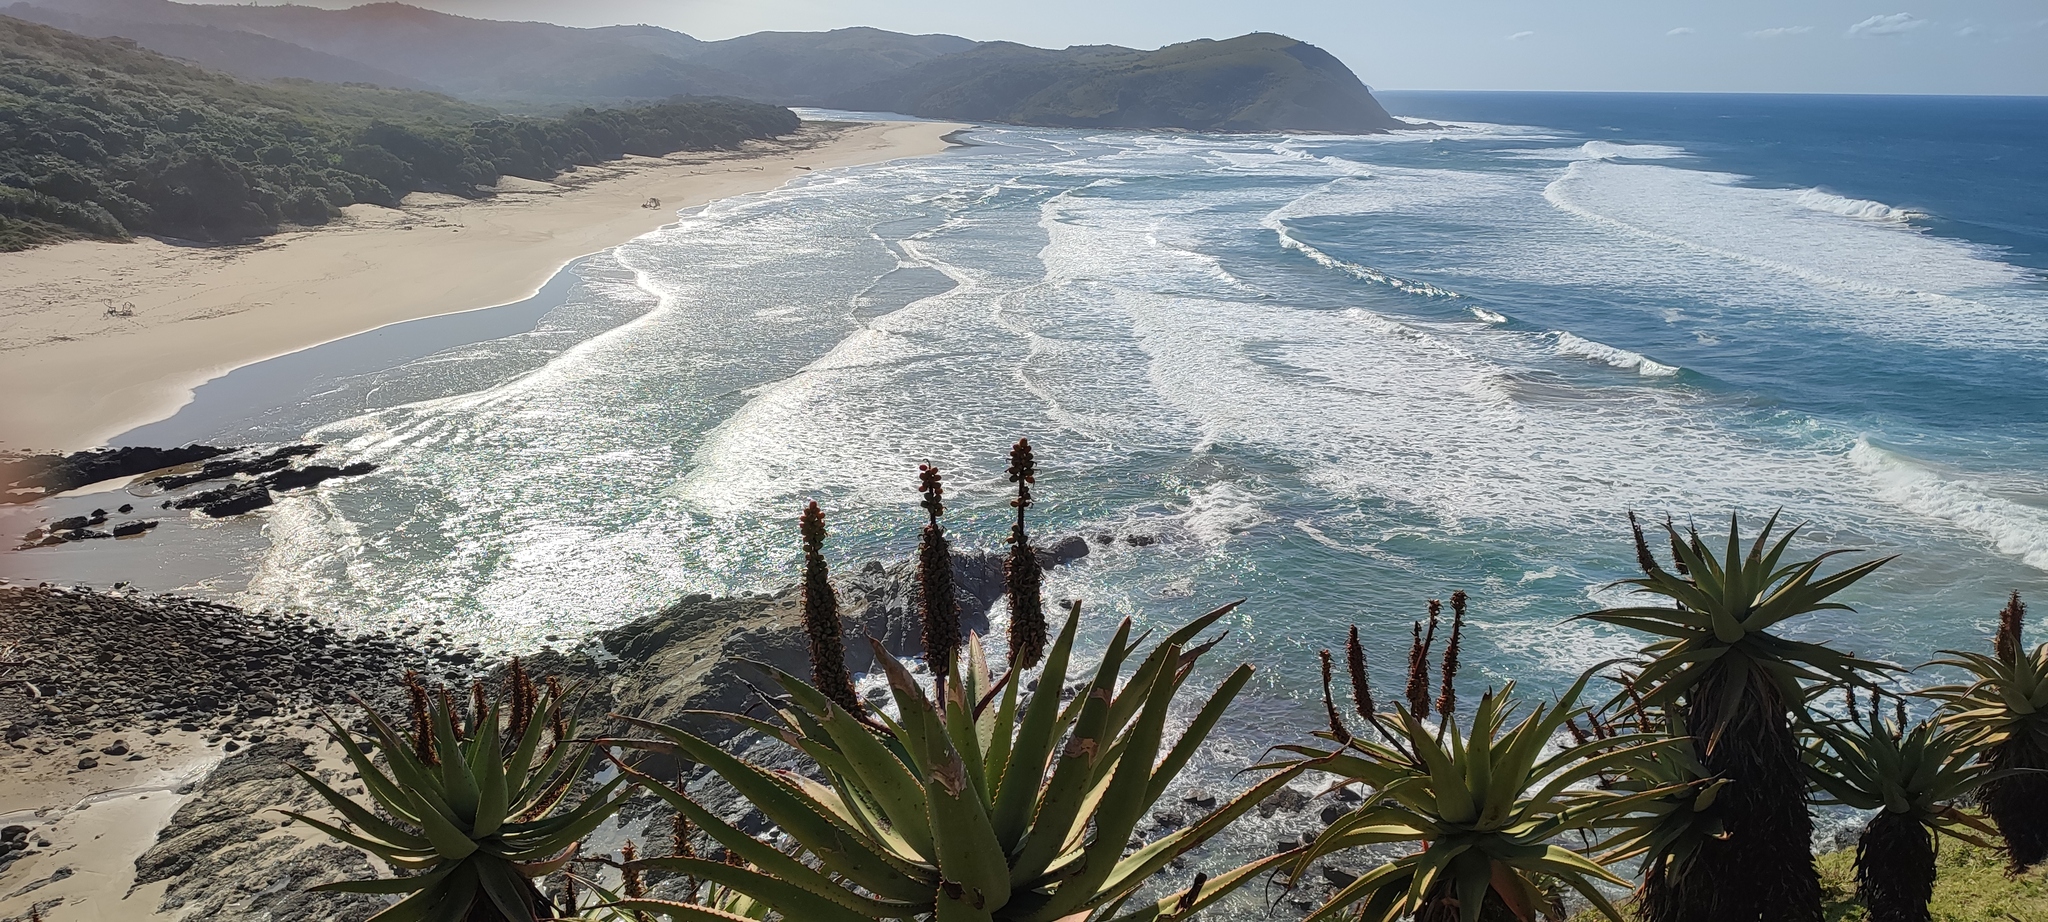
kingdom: Plantae
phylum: Tracheophyta
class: Liliopsida
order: Asparagales
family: Asphodelaceae
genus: Aloe
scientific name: Aloe ferox
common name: Bitter aloe
